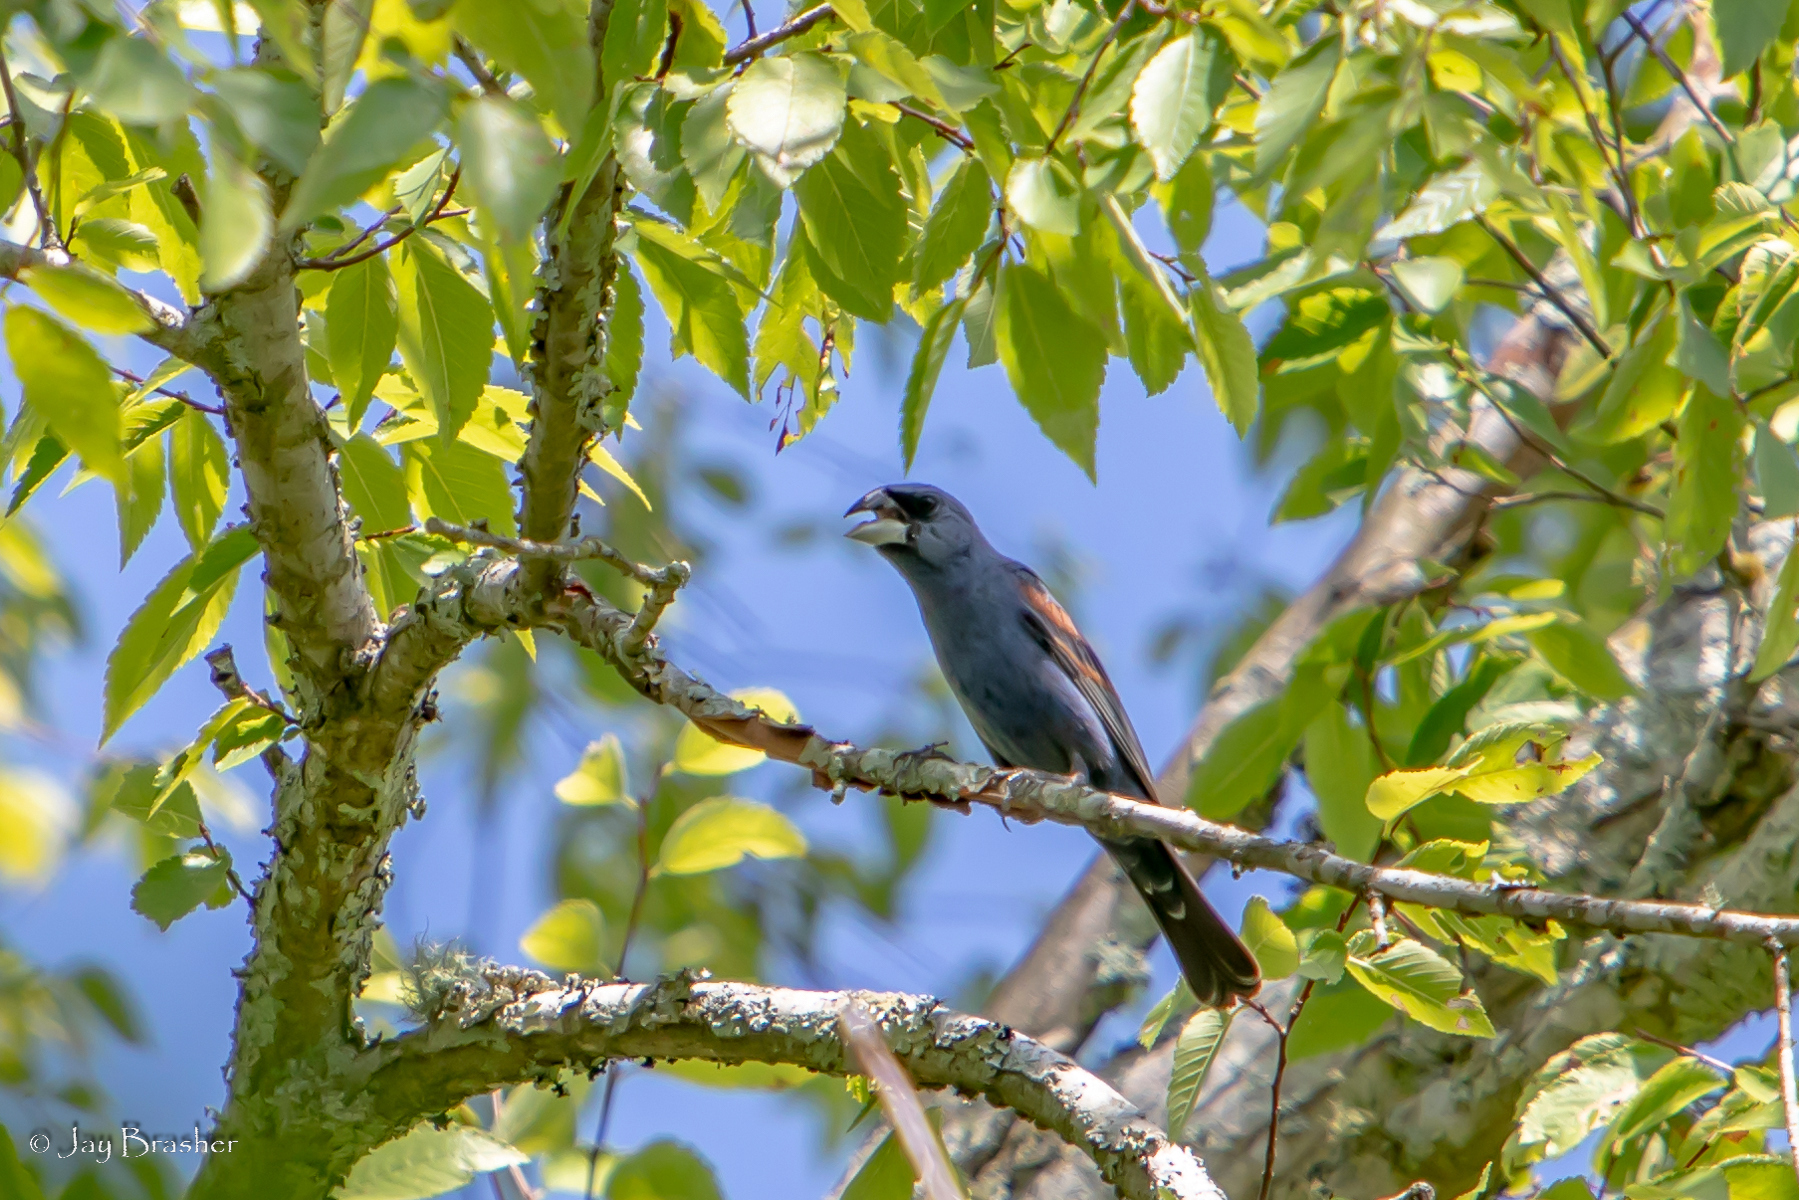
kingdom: Animalia
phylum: Chordata
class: Aves
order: Passeriformes
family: Cardinalidae
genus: Passerina
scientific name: Passerina caerulea
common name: Blue grosbeak
